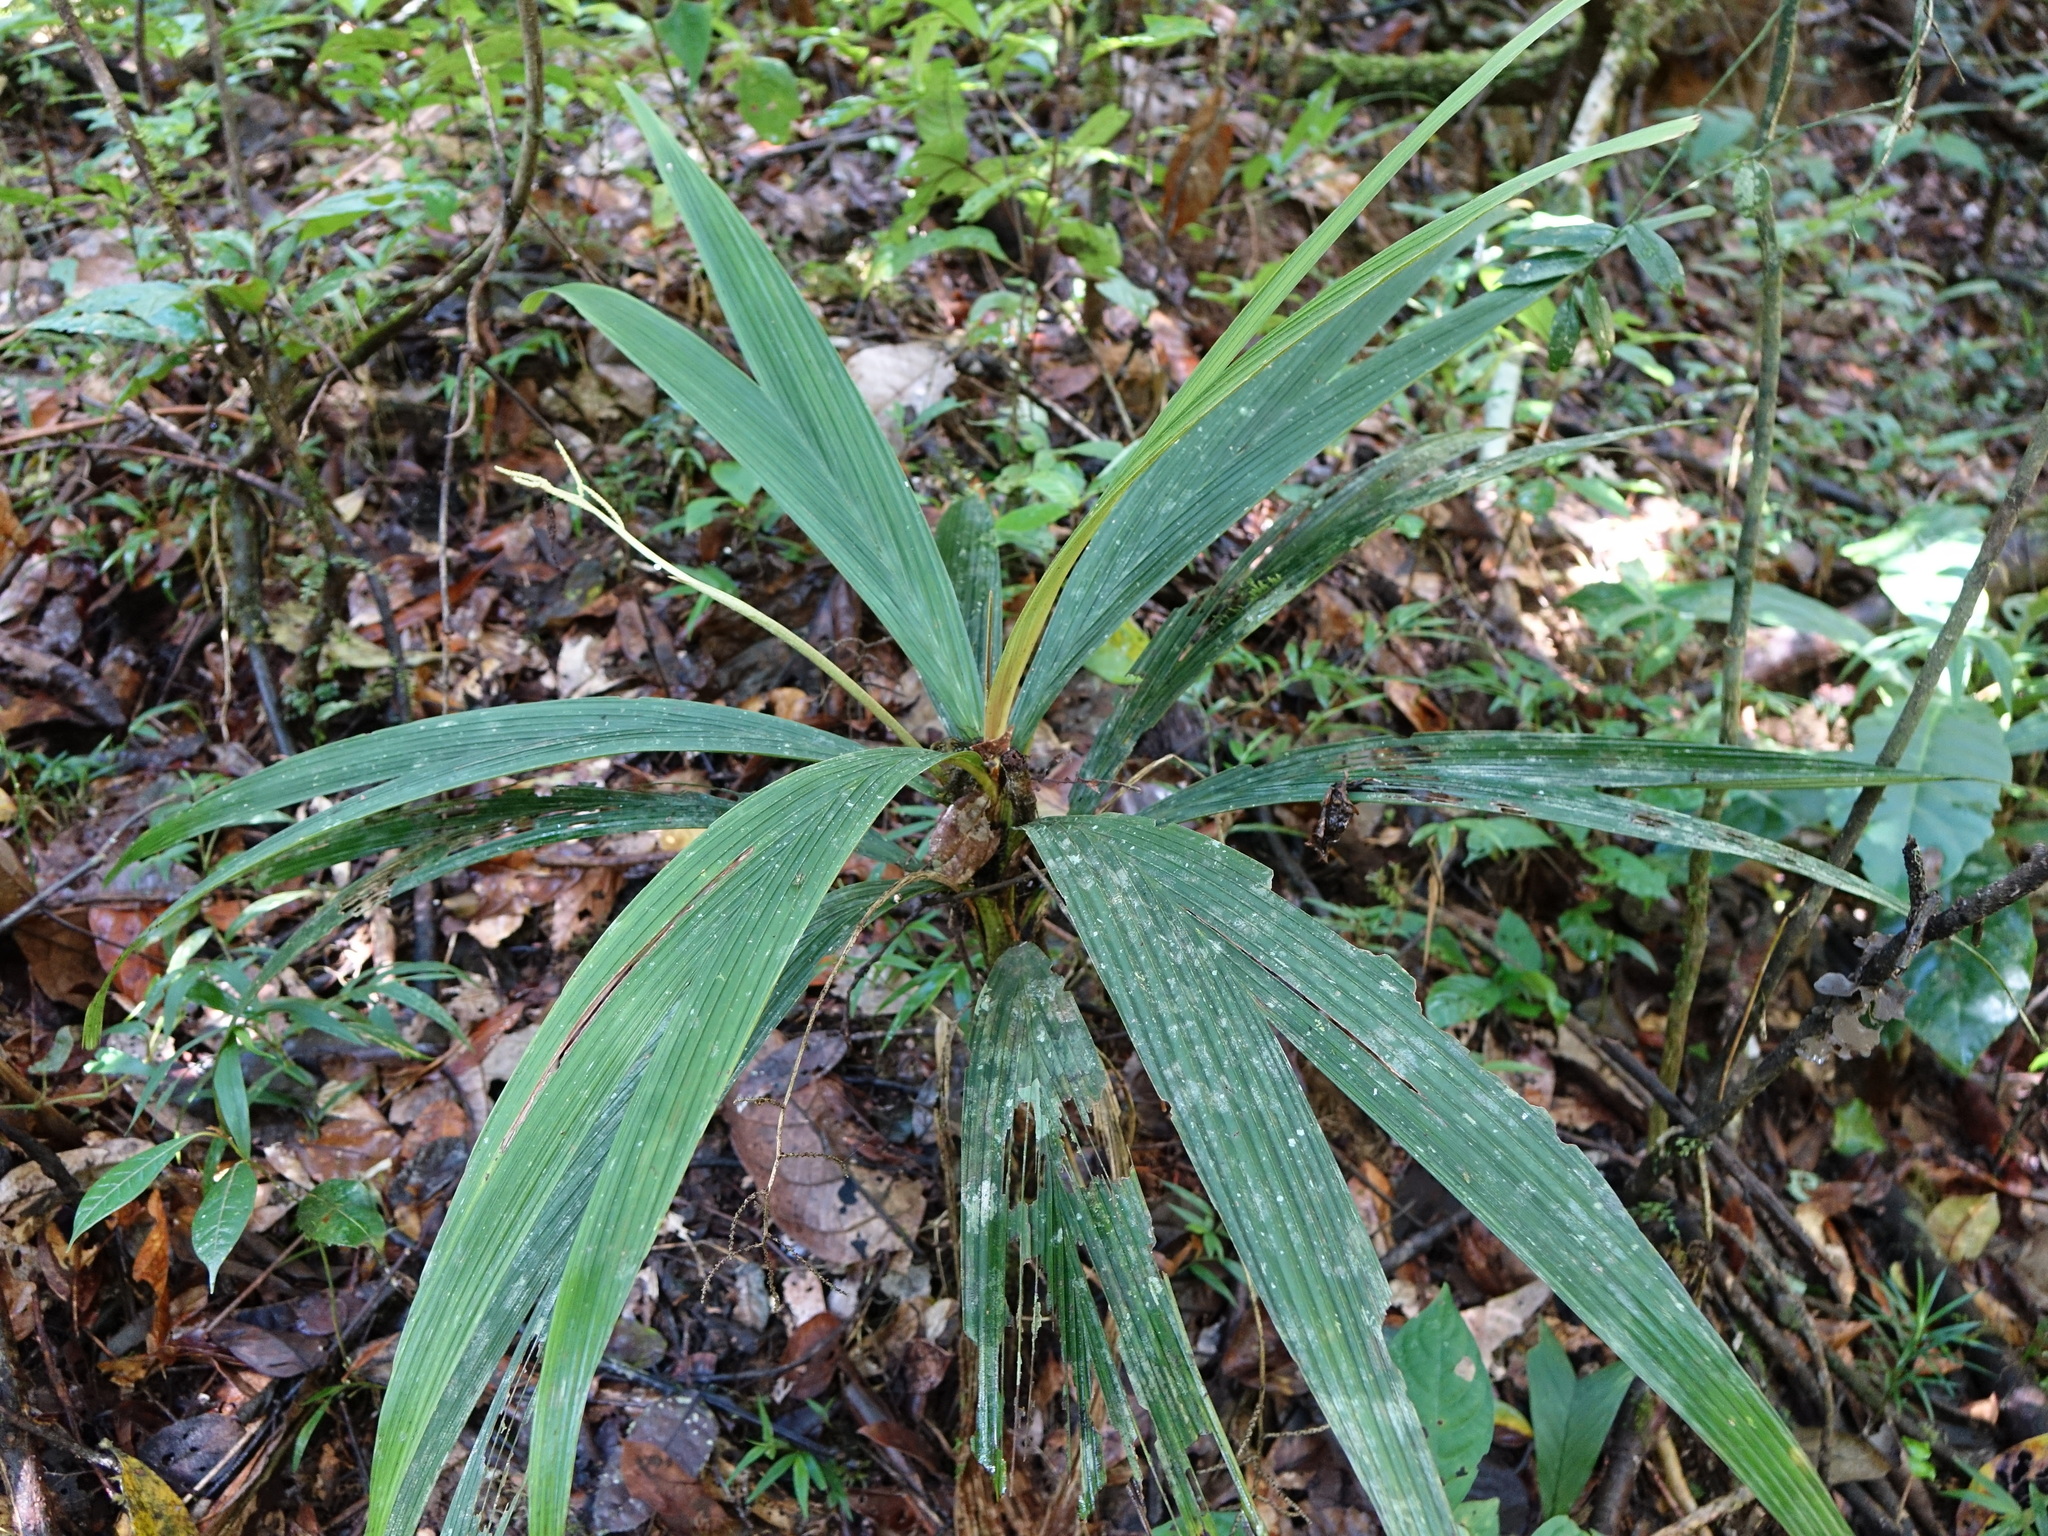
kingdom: Plantae
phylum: Tracheophyta
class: Liliopsida
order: Arecales
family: Arecaceae
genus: Dypsis
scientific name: Dypsis louvelii
